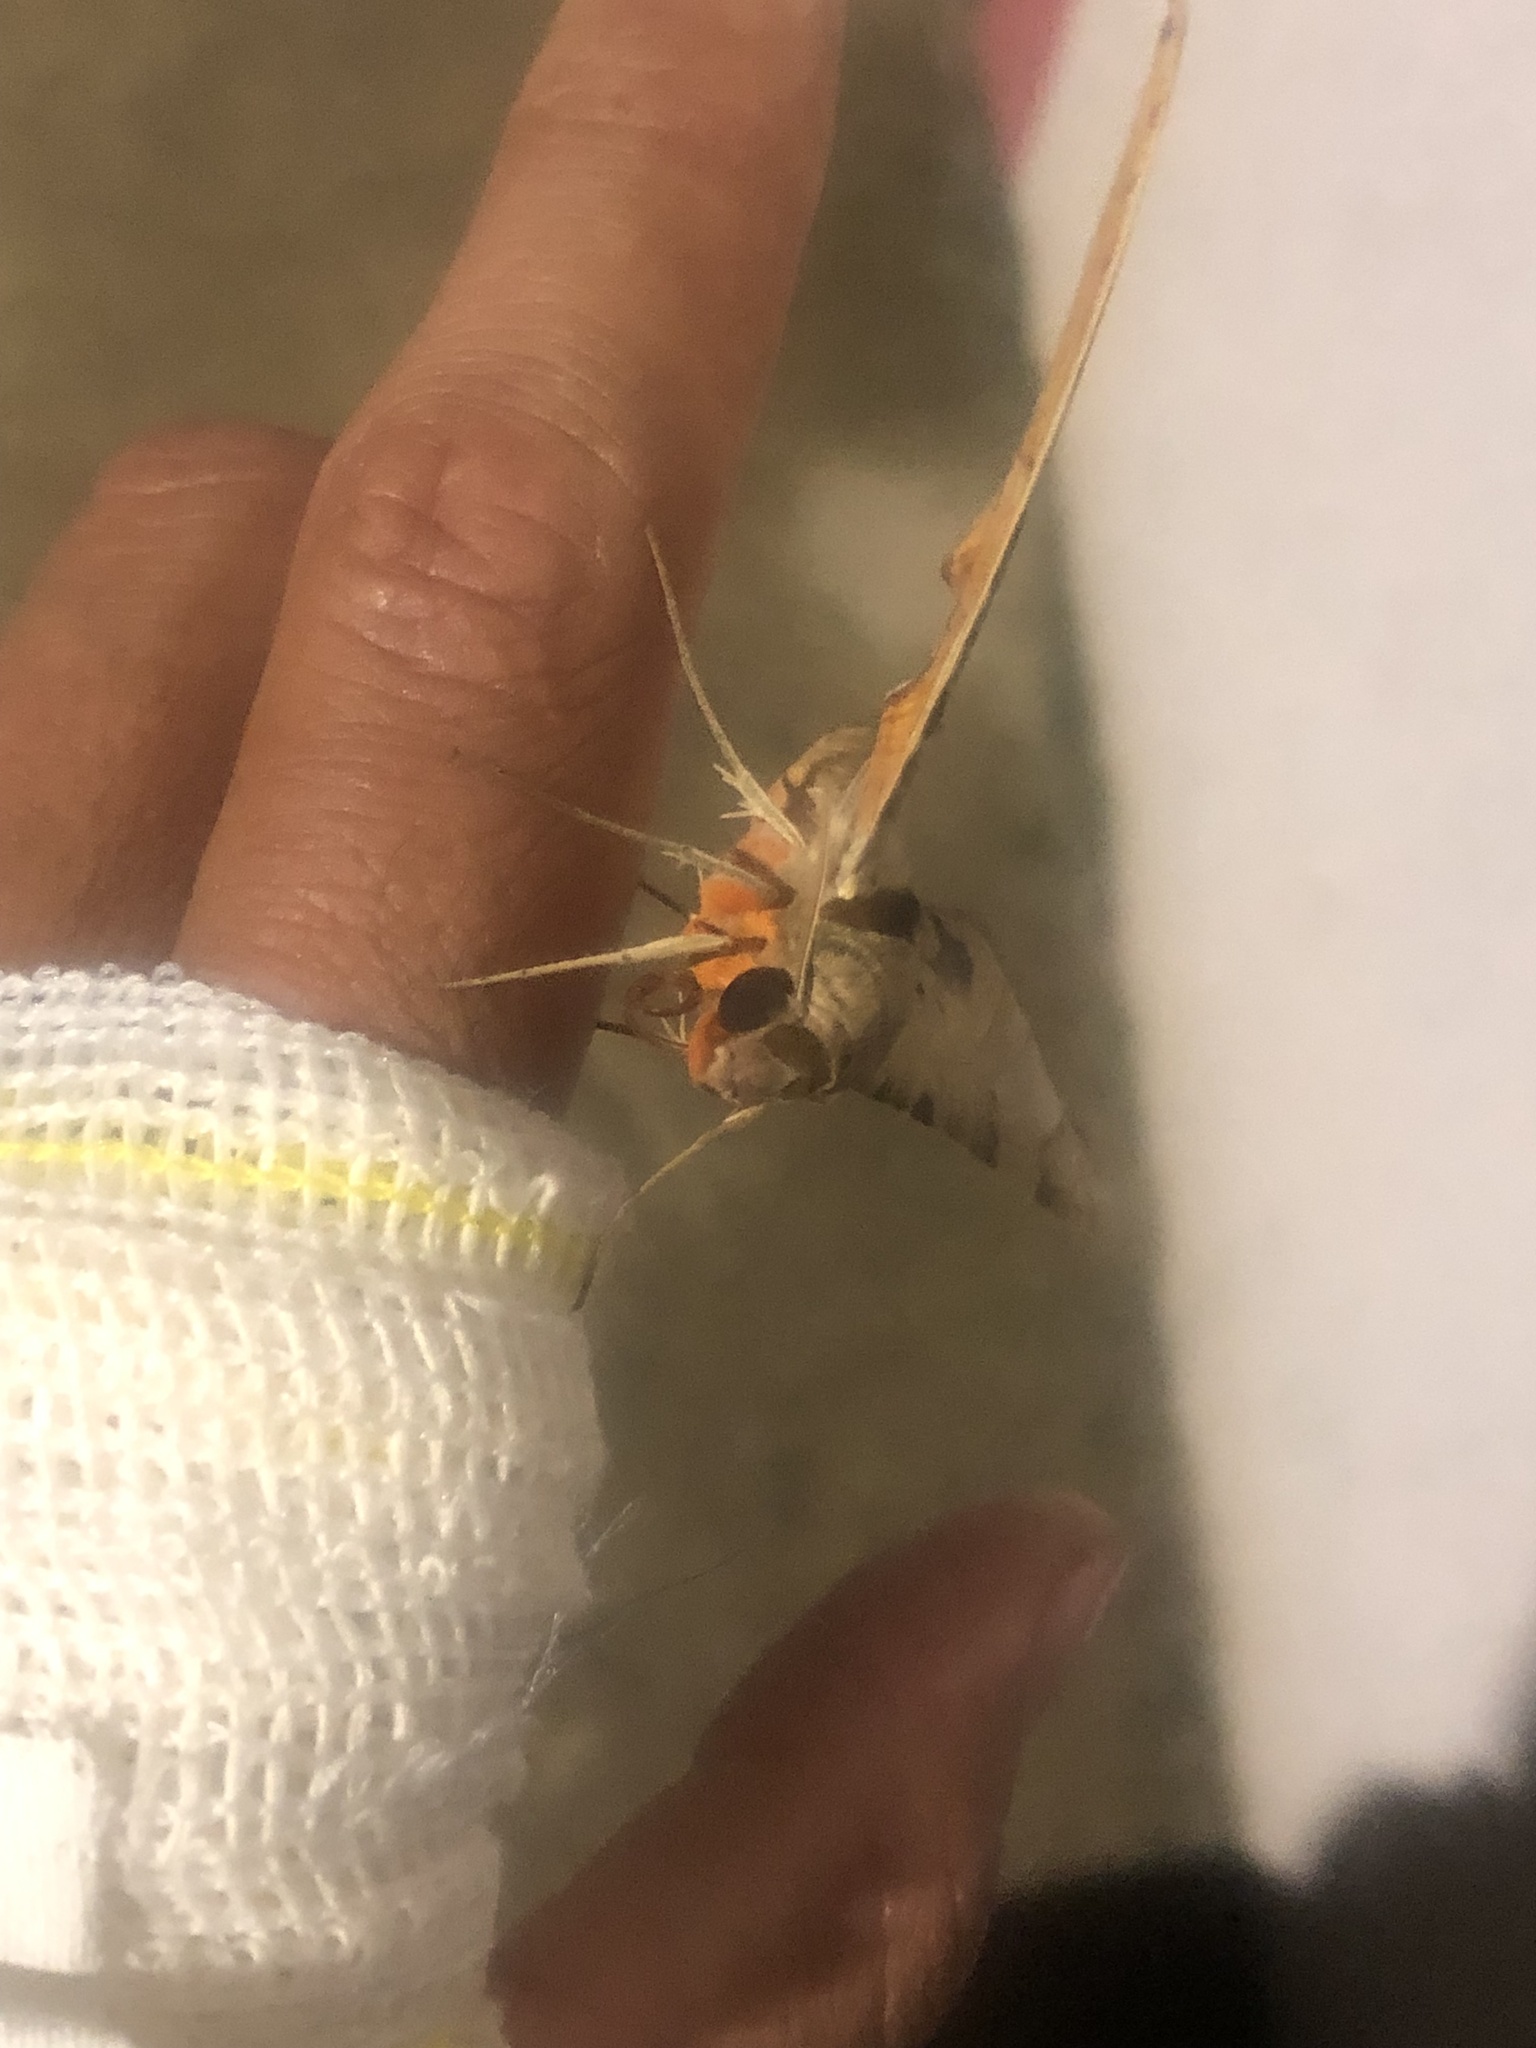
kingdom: Animalia
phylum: Arthropoda
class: Insecta
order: Lepidoptera
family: Sphingidae
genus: Protambulyx
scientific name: Protambulyx strigilis
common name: Streaked sphinx
